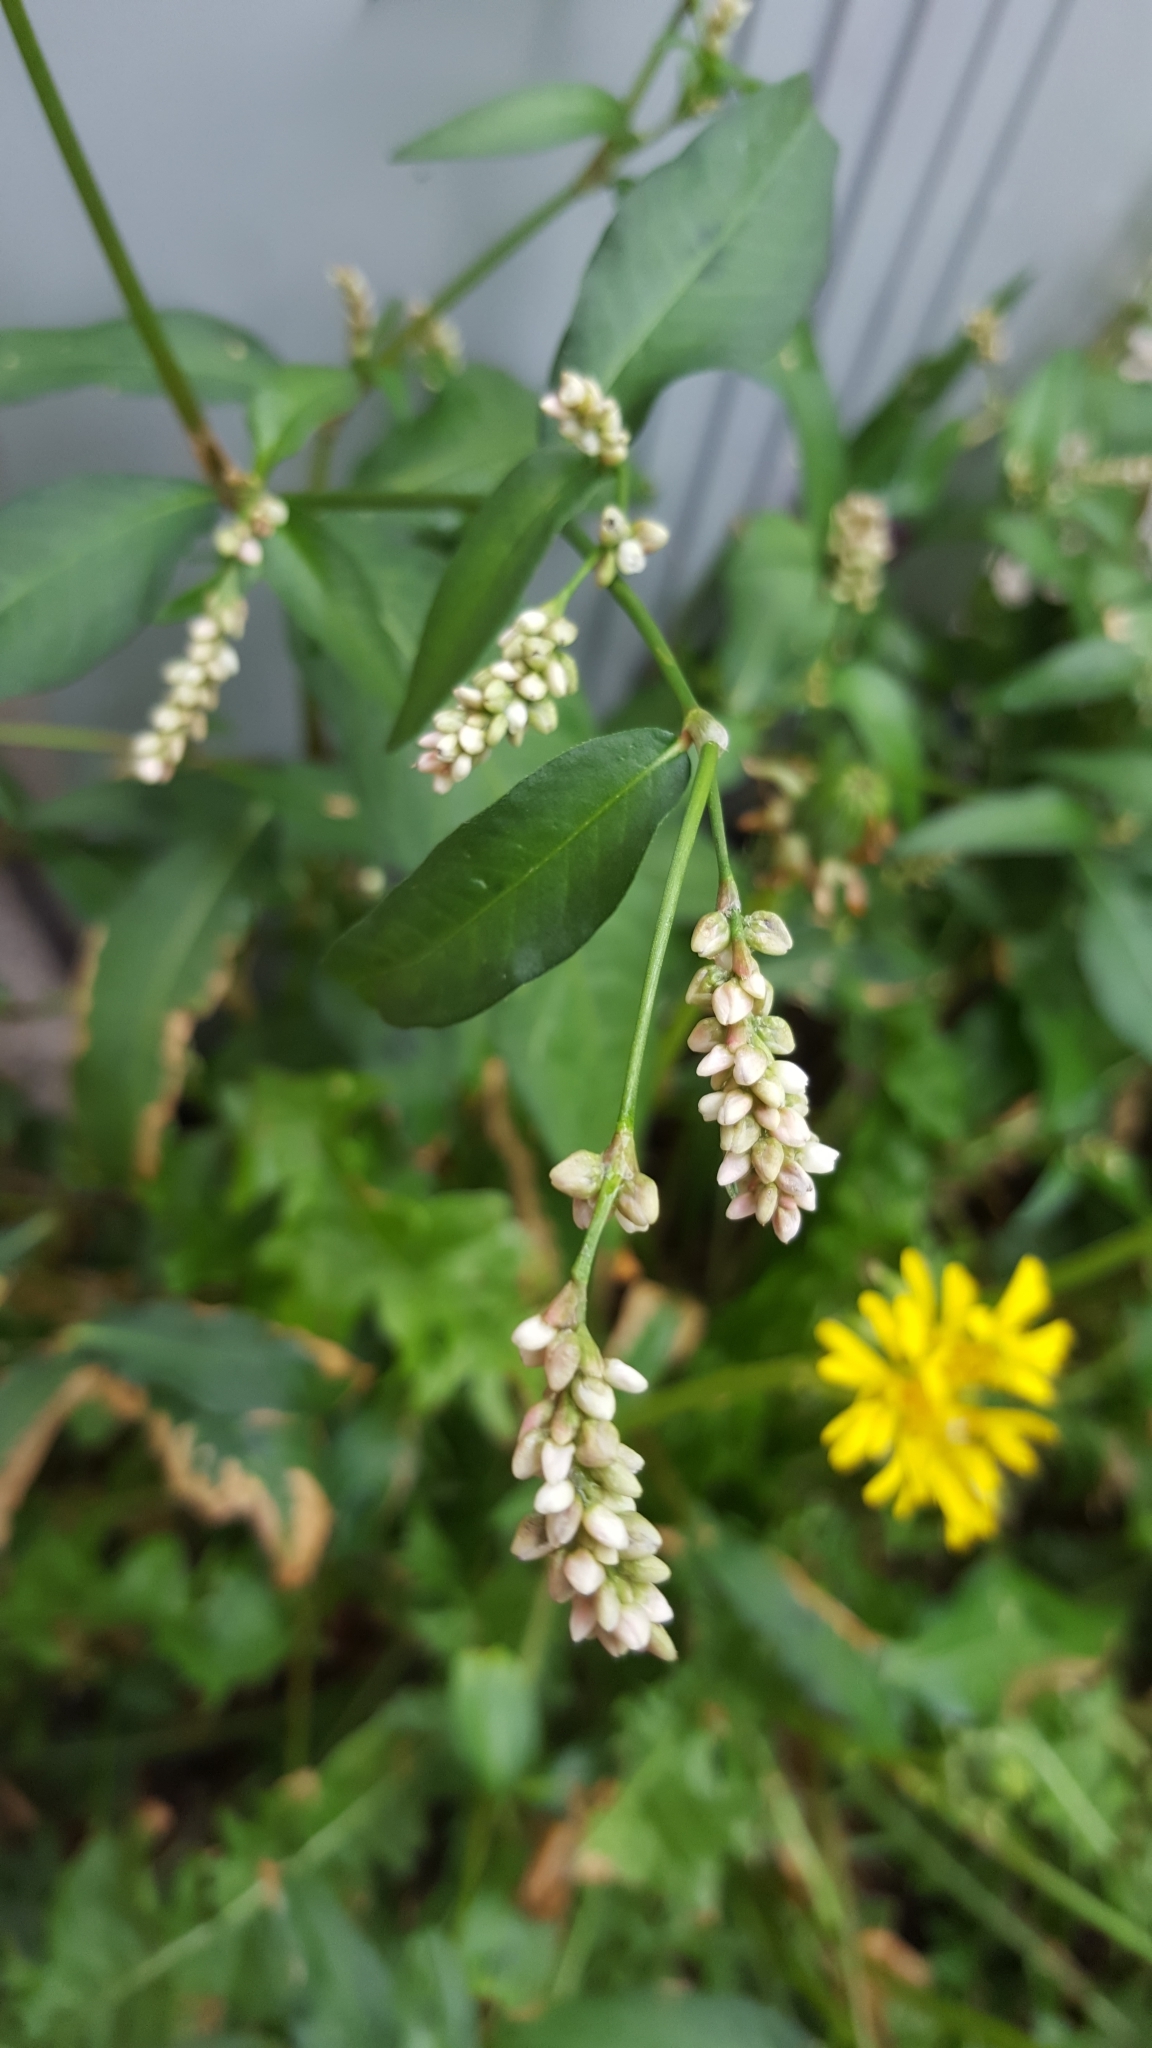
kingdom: Plantae
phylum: Tracheophyta
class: Magnoliopsida
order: Caryophyllales
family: Polygonaceae
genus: Persicaria
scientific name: Persicaria maculosa
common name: Redshank
